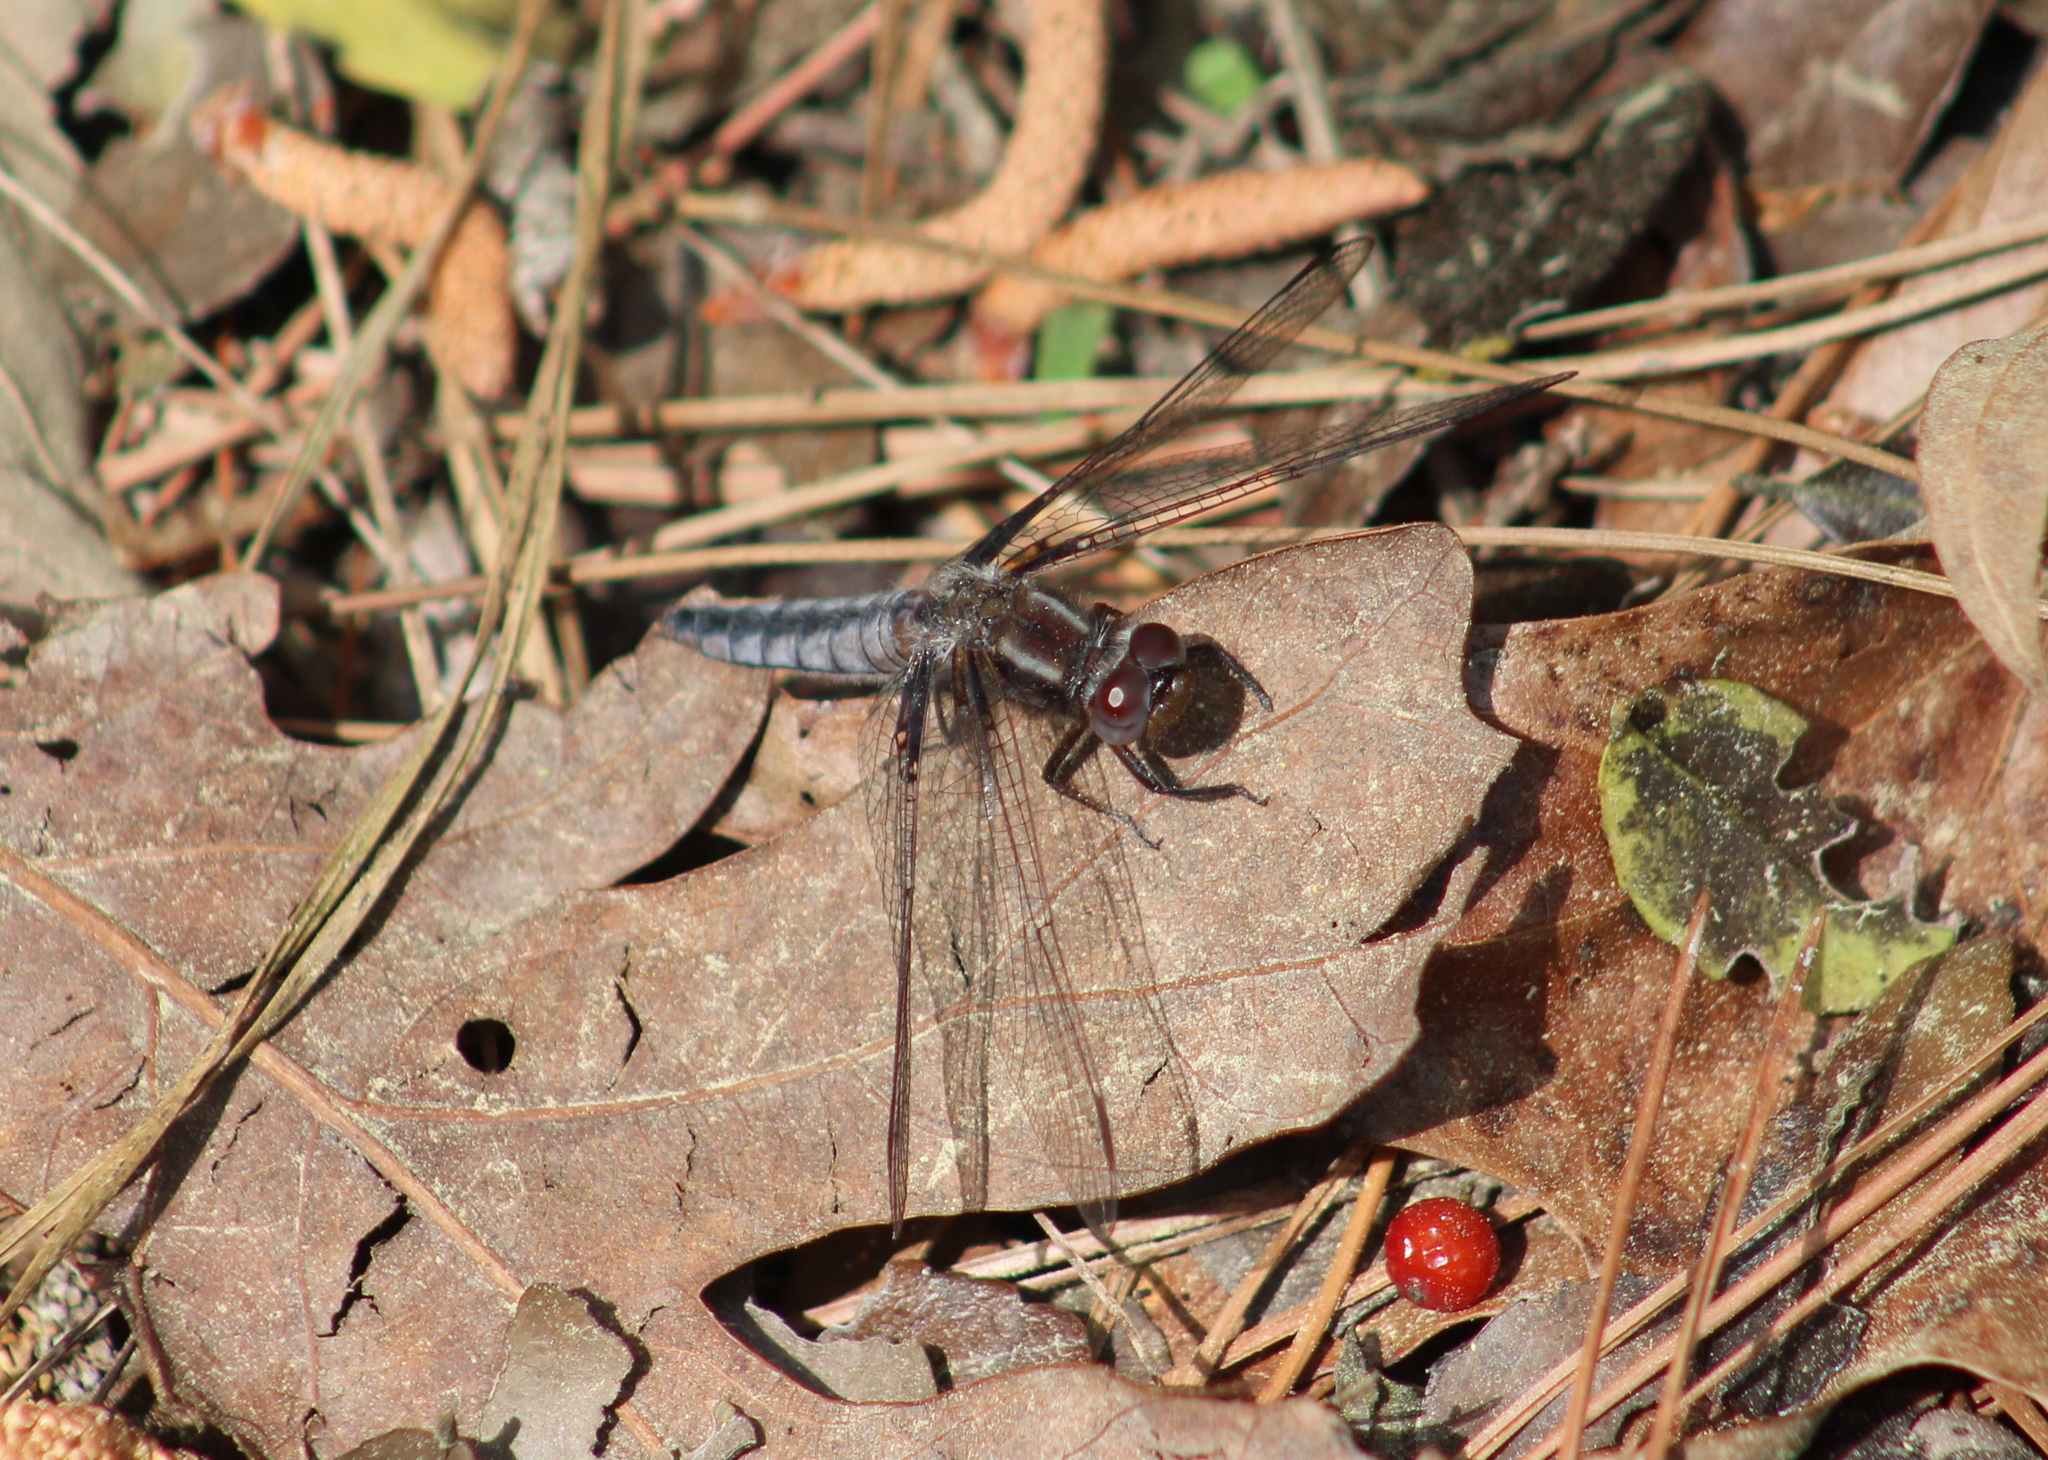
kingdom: Animalia
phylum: Arthropoda
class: Insecta
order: Odonata
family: Libellulidae
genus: Ladona
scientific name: Ladona deplanata
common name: Blue corporal
